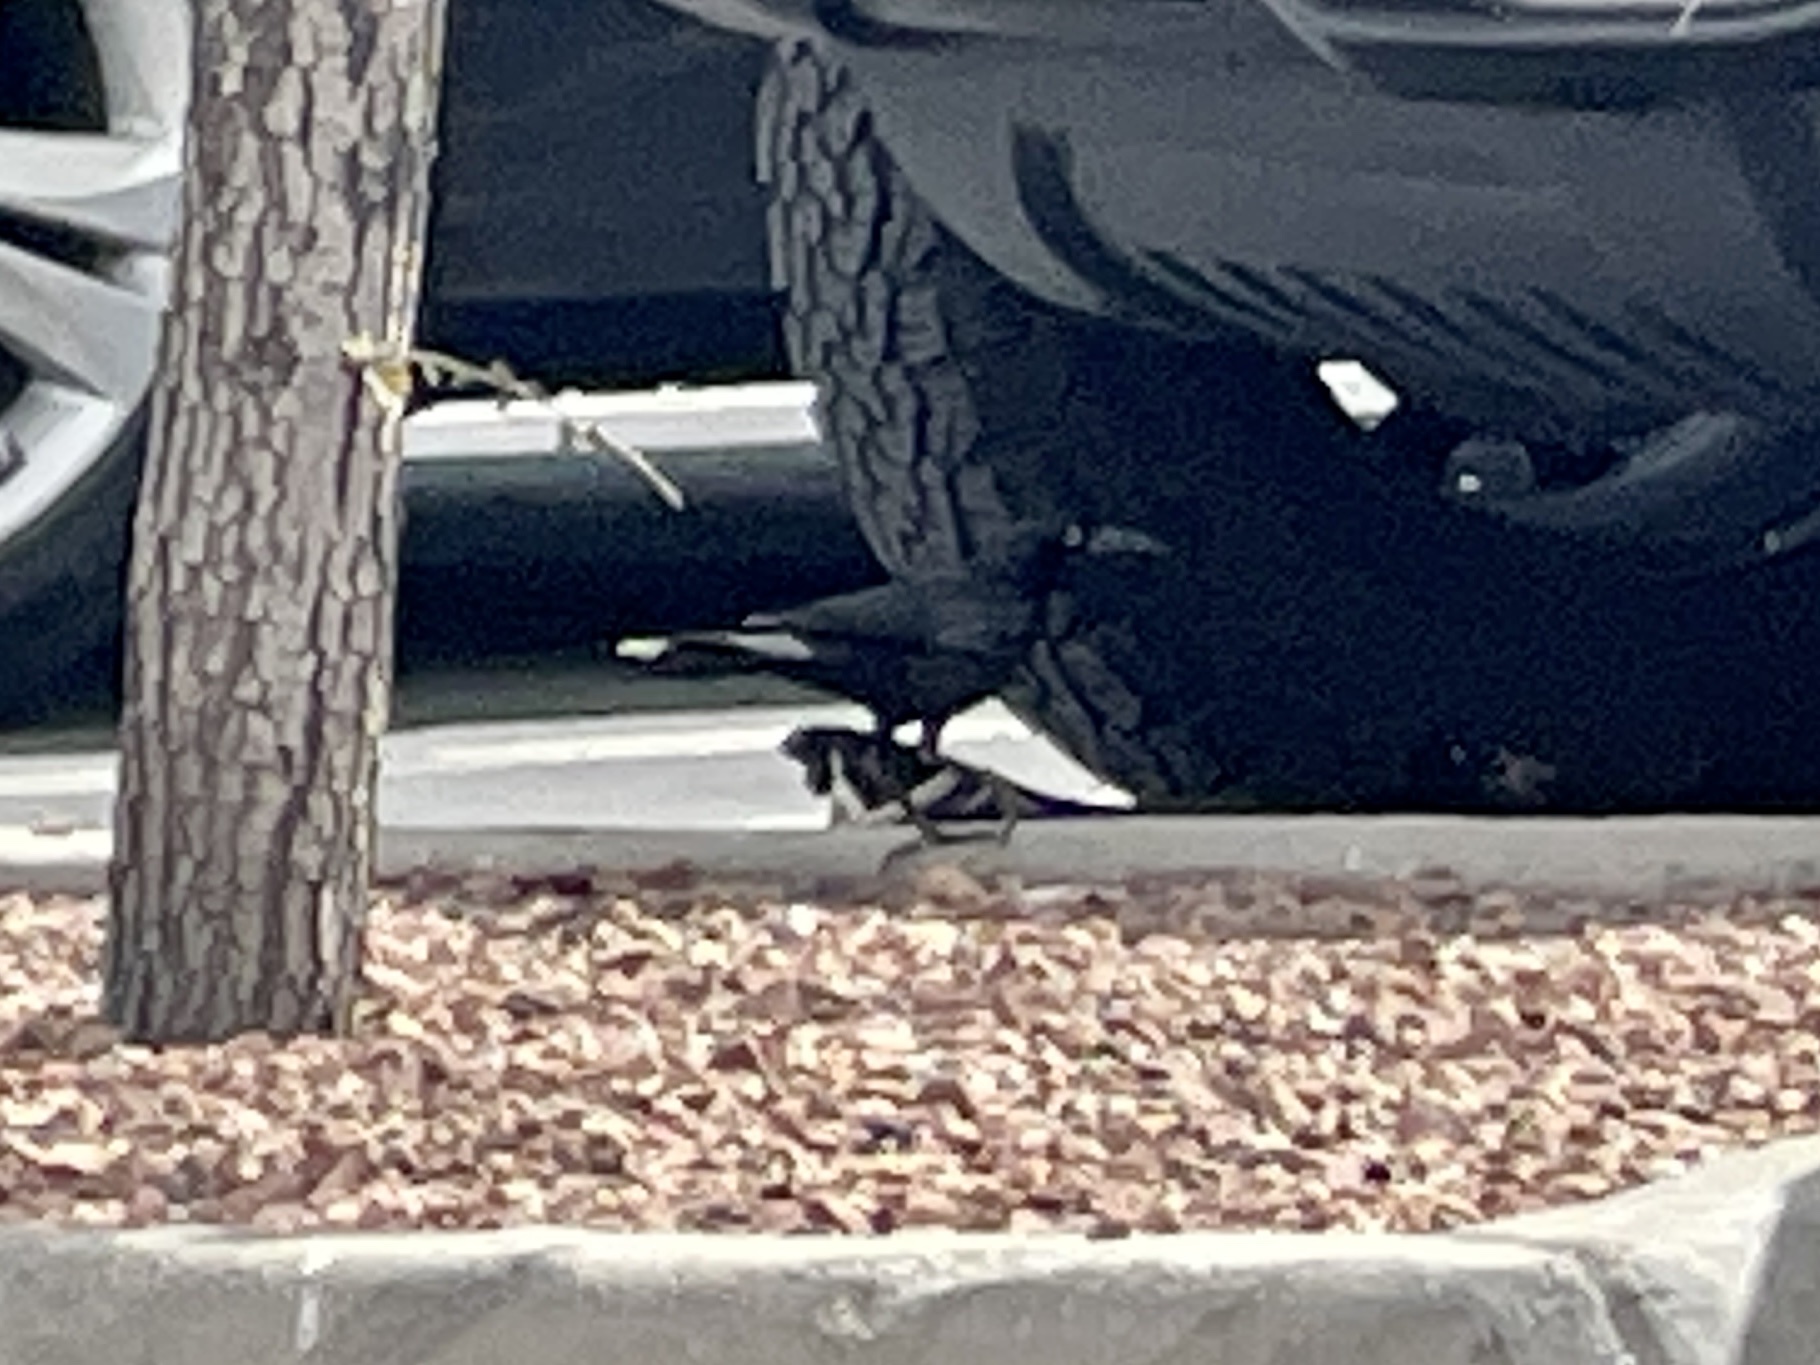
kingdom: Animalia
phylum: Chordata
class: Aves
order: Passeriformes
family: Icteridae
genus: Quiscalus
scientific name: Quiscalus mexicanus
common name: Great-tailed grackle
